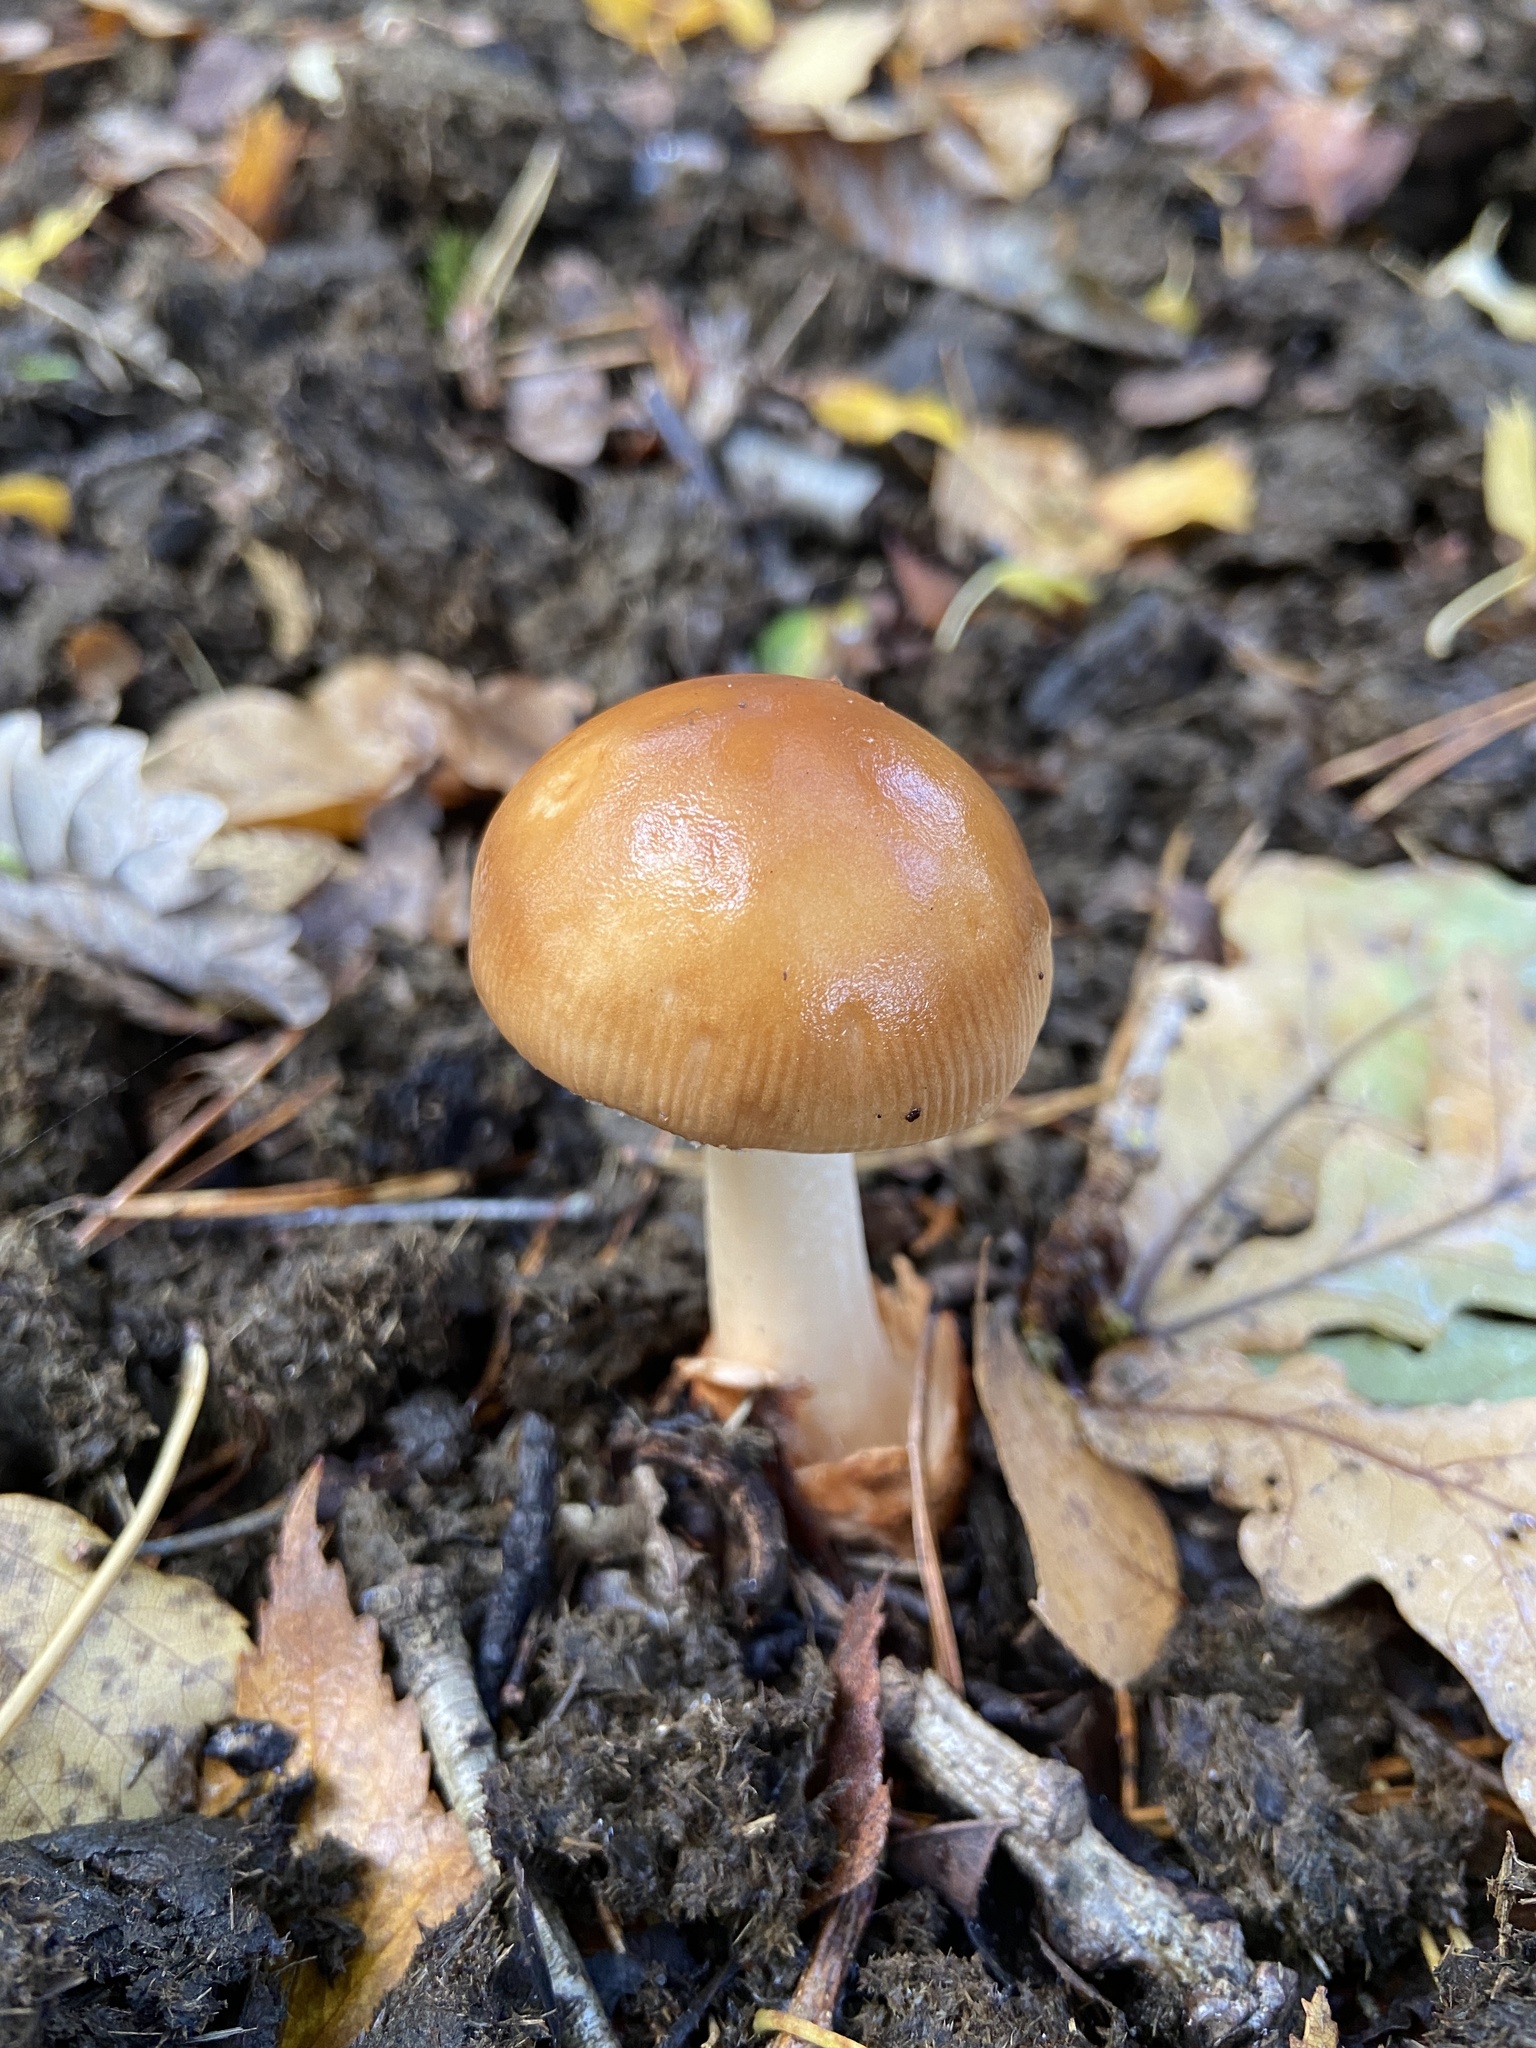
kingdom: Fungi
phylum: Basidiomycota
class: Agaricomycetes
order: Agaricales
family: Amanitaceae
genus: Amanita
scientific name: Amanita fulva
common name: Tawny grisette
